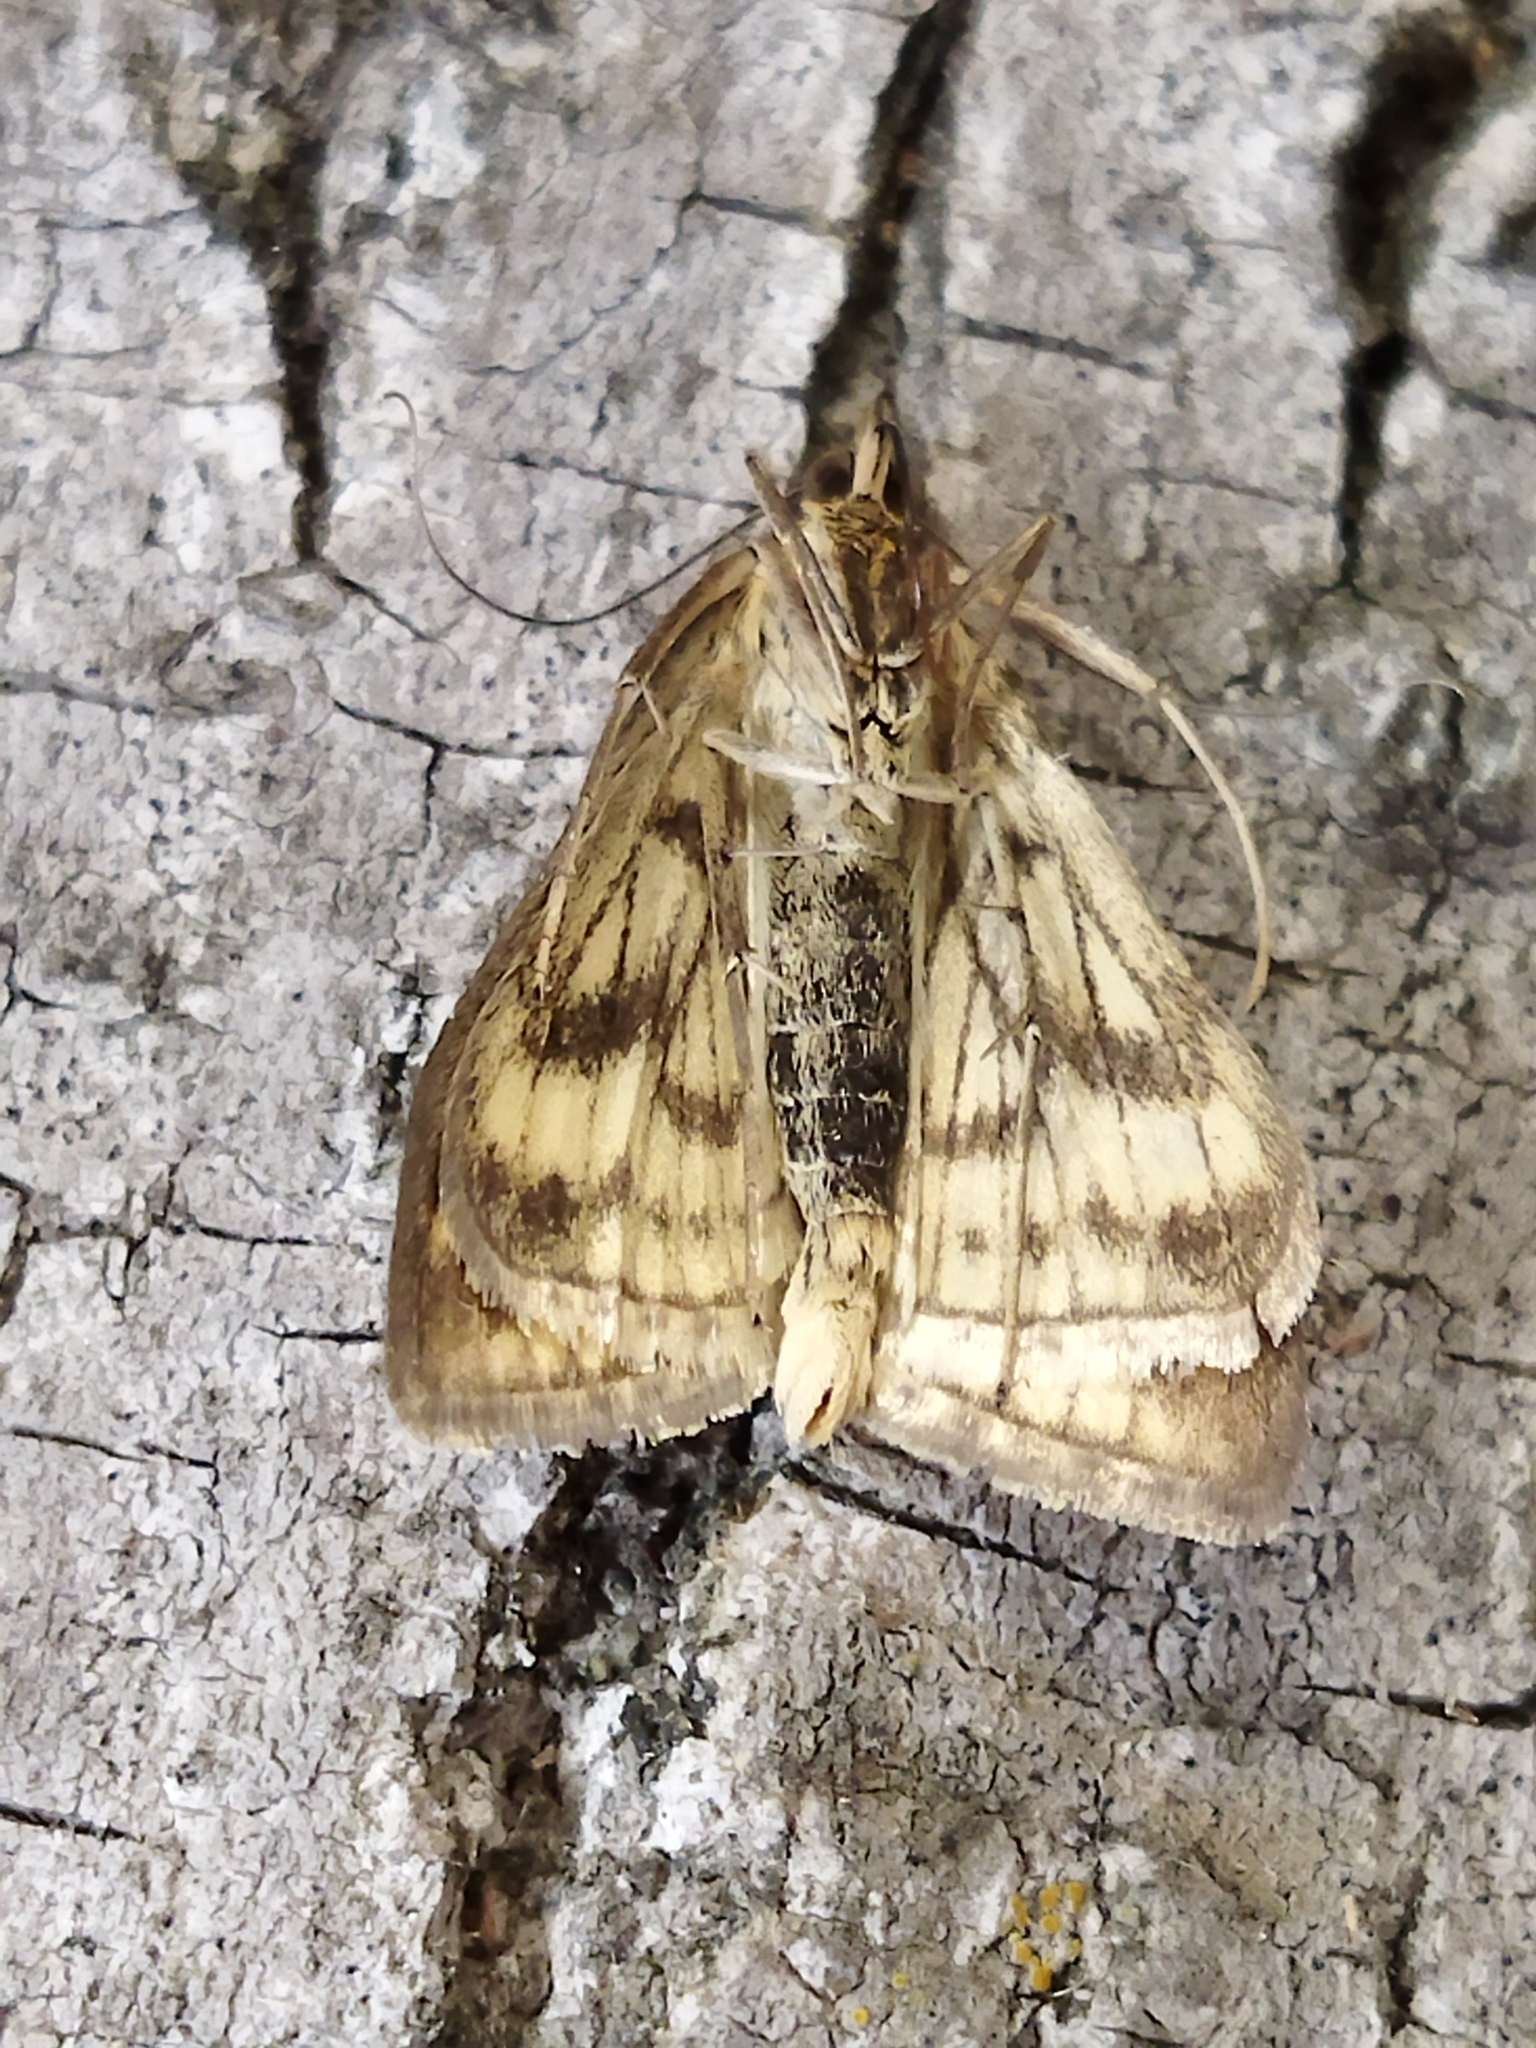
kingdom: Animalia
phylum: Arthropoda
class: Insecta
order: Lepidoptera
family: Crambidae
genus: Sitochroa
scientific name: Sitochroa verticalis
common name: Lesser pearl
